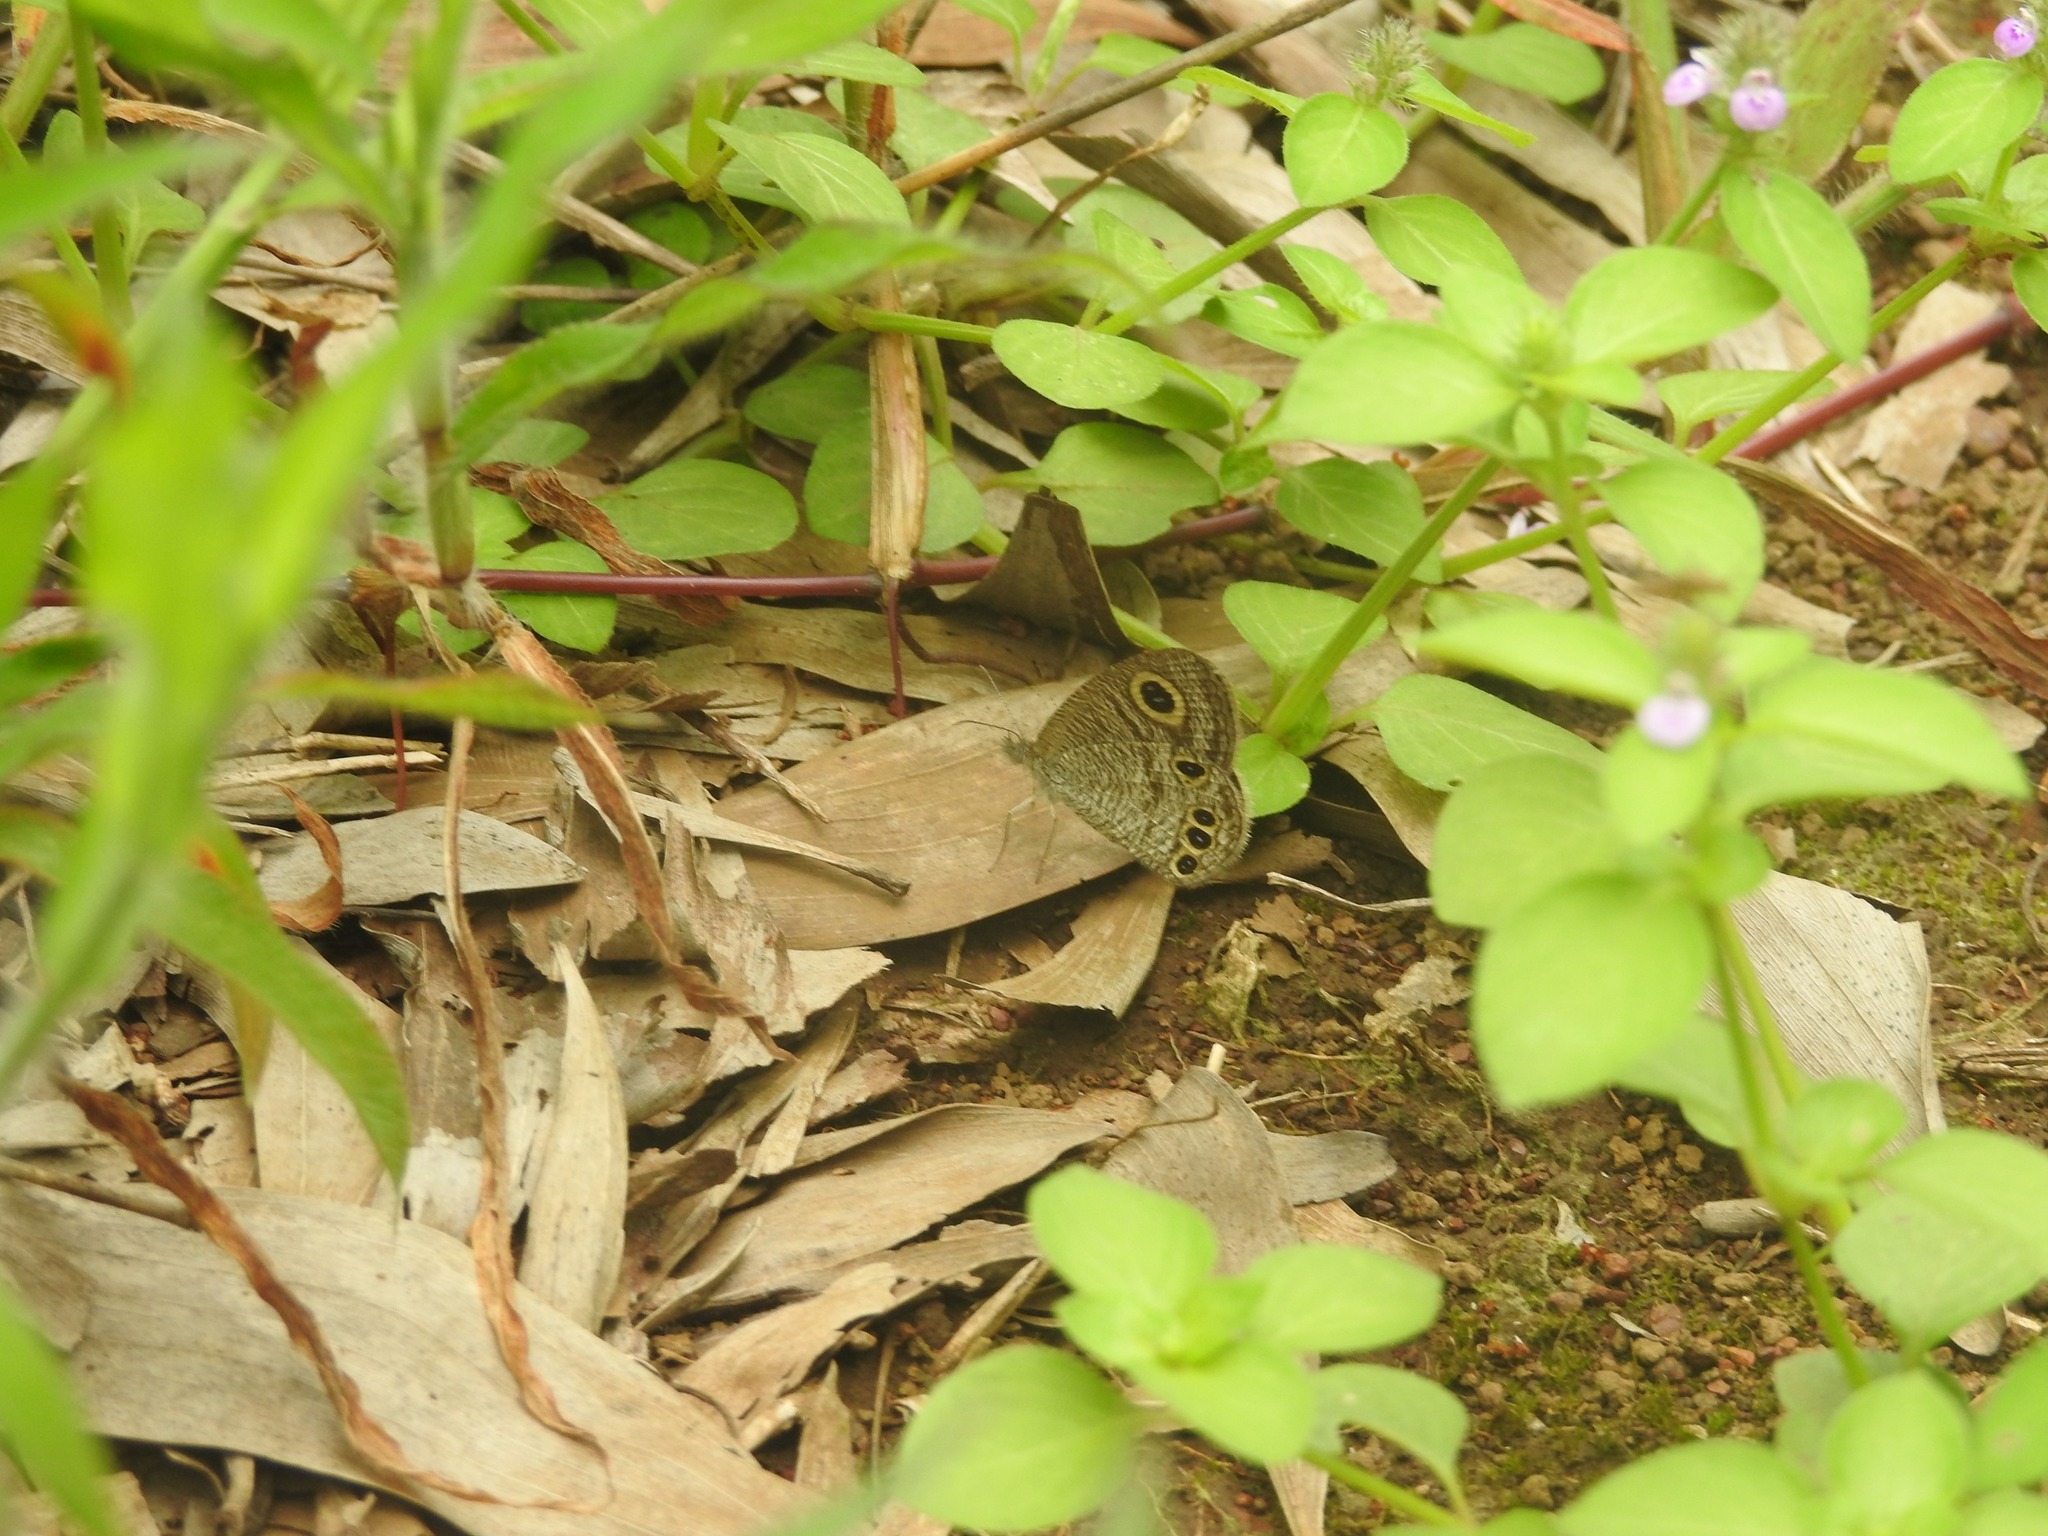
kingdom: Animalia
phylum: Arthropoda
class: Insecta
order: Lepidoptera
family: Nymphalidae
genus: Ypthima
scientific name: Ypthima huebneri
